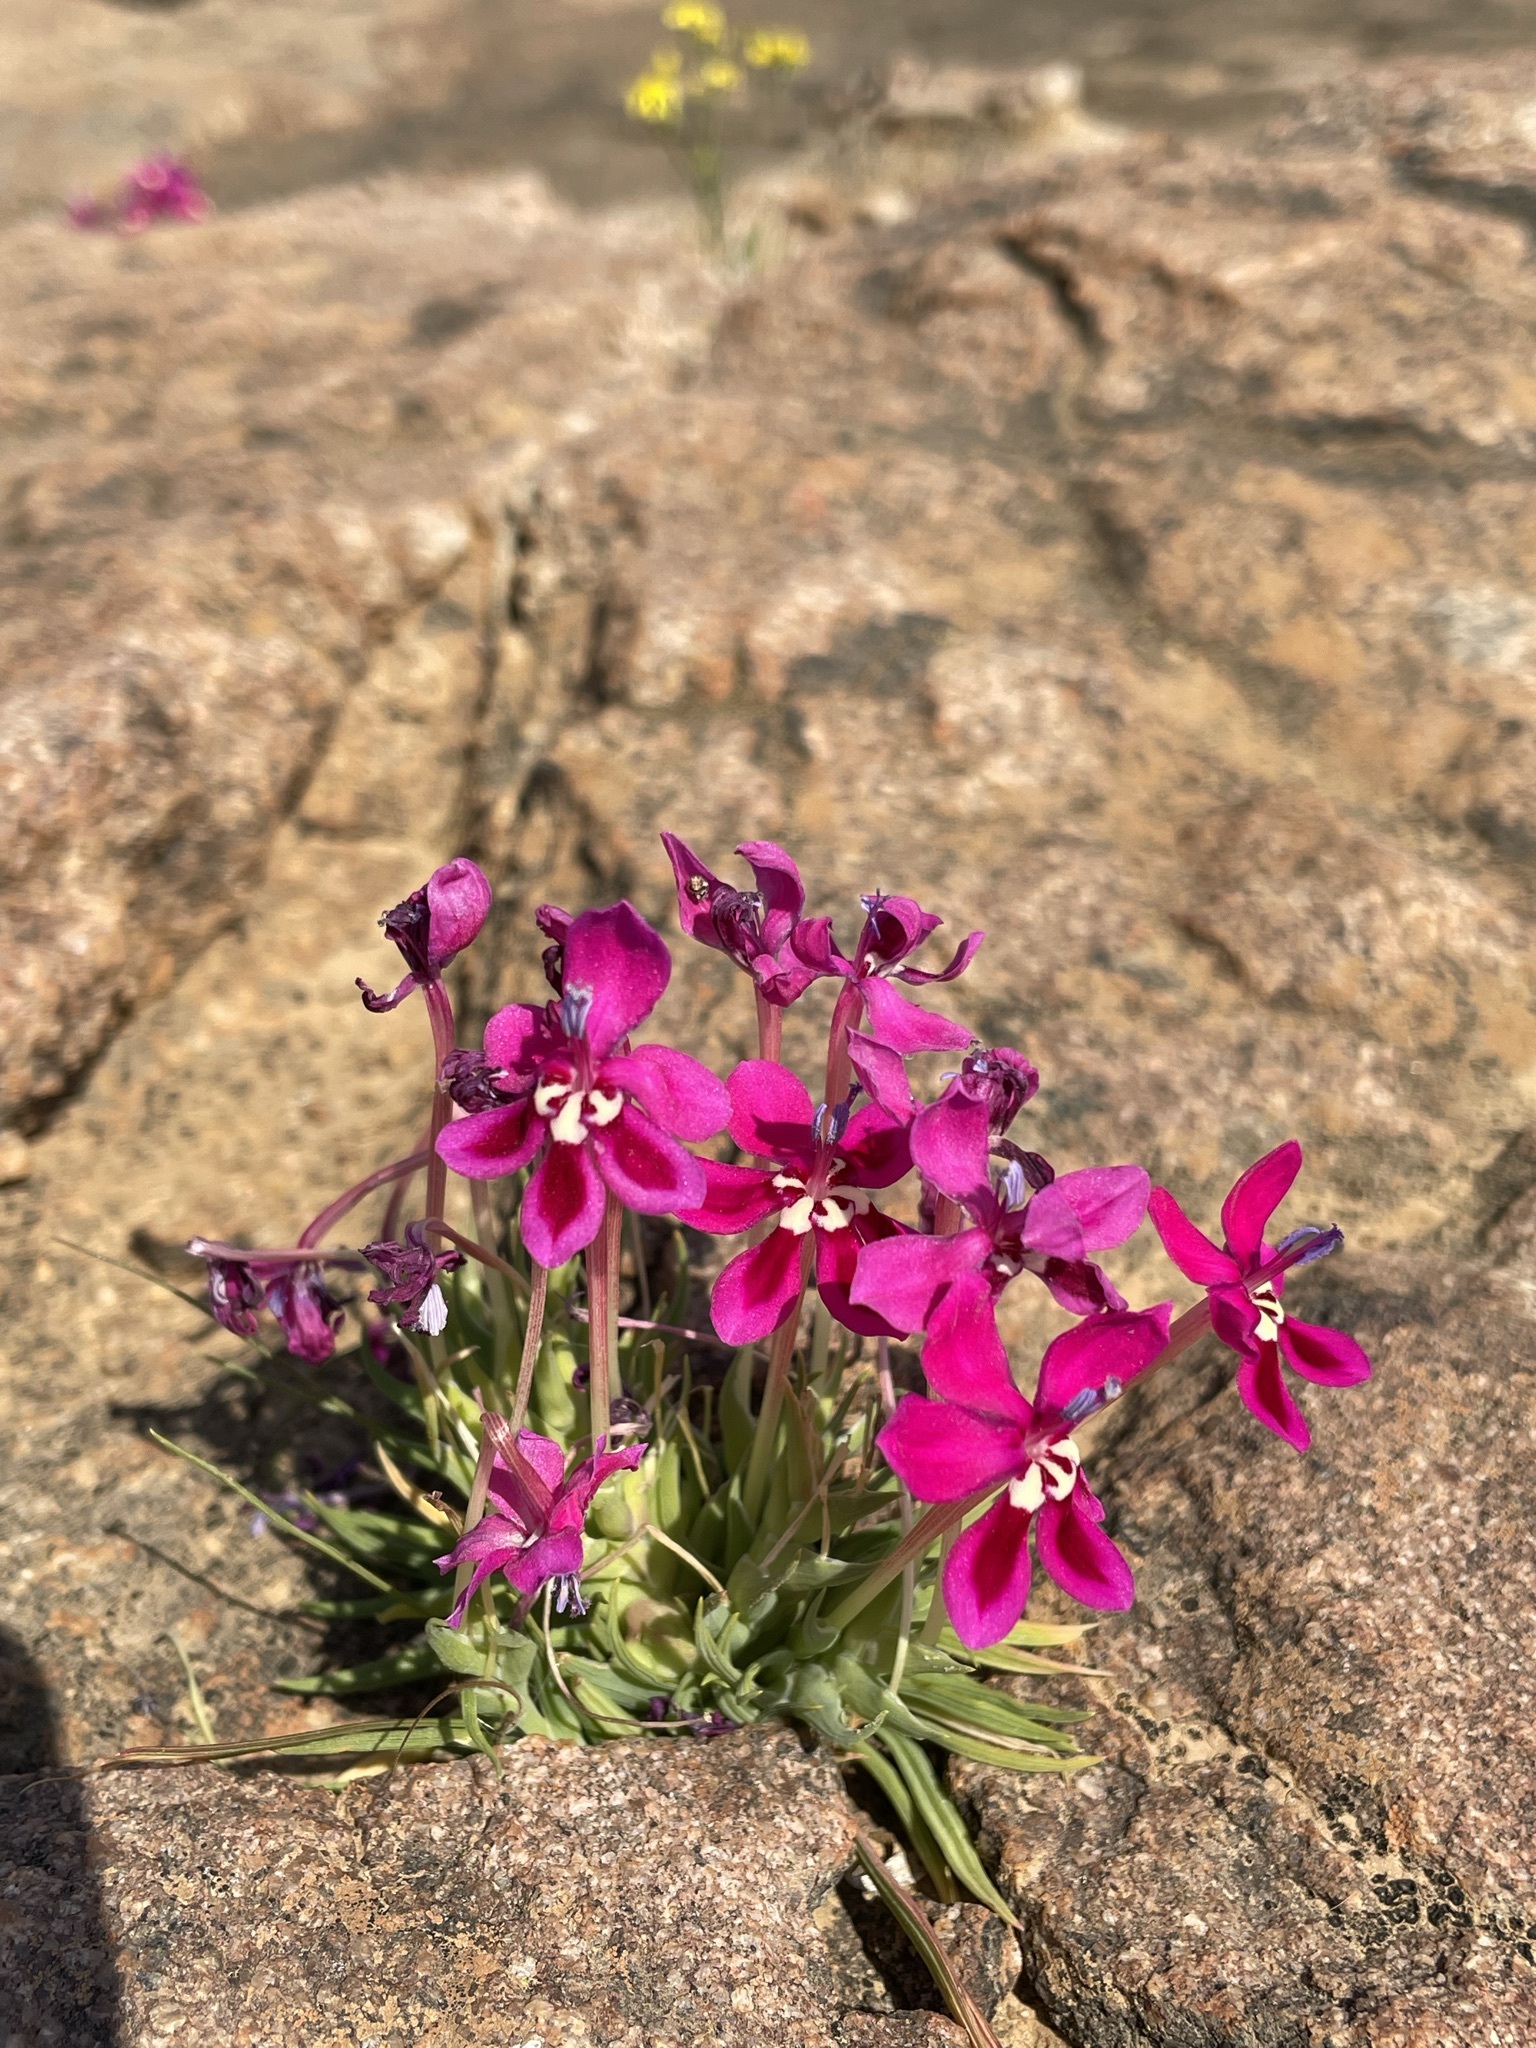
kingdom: Plantae
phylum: Tracheophyta
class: Liliopsida
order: Asparagales
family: Iridaceae
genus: Lapeirousia
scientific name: Lapeirousia silenoides
